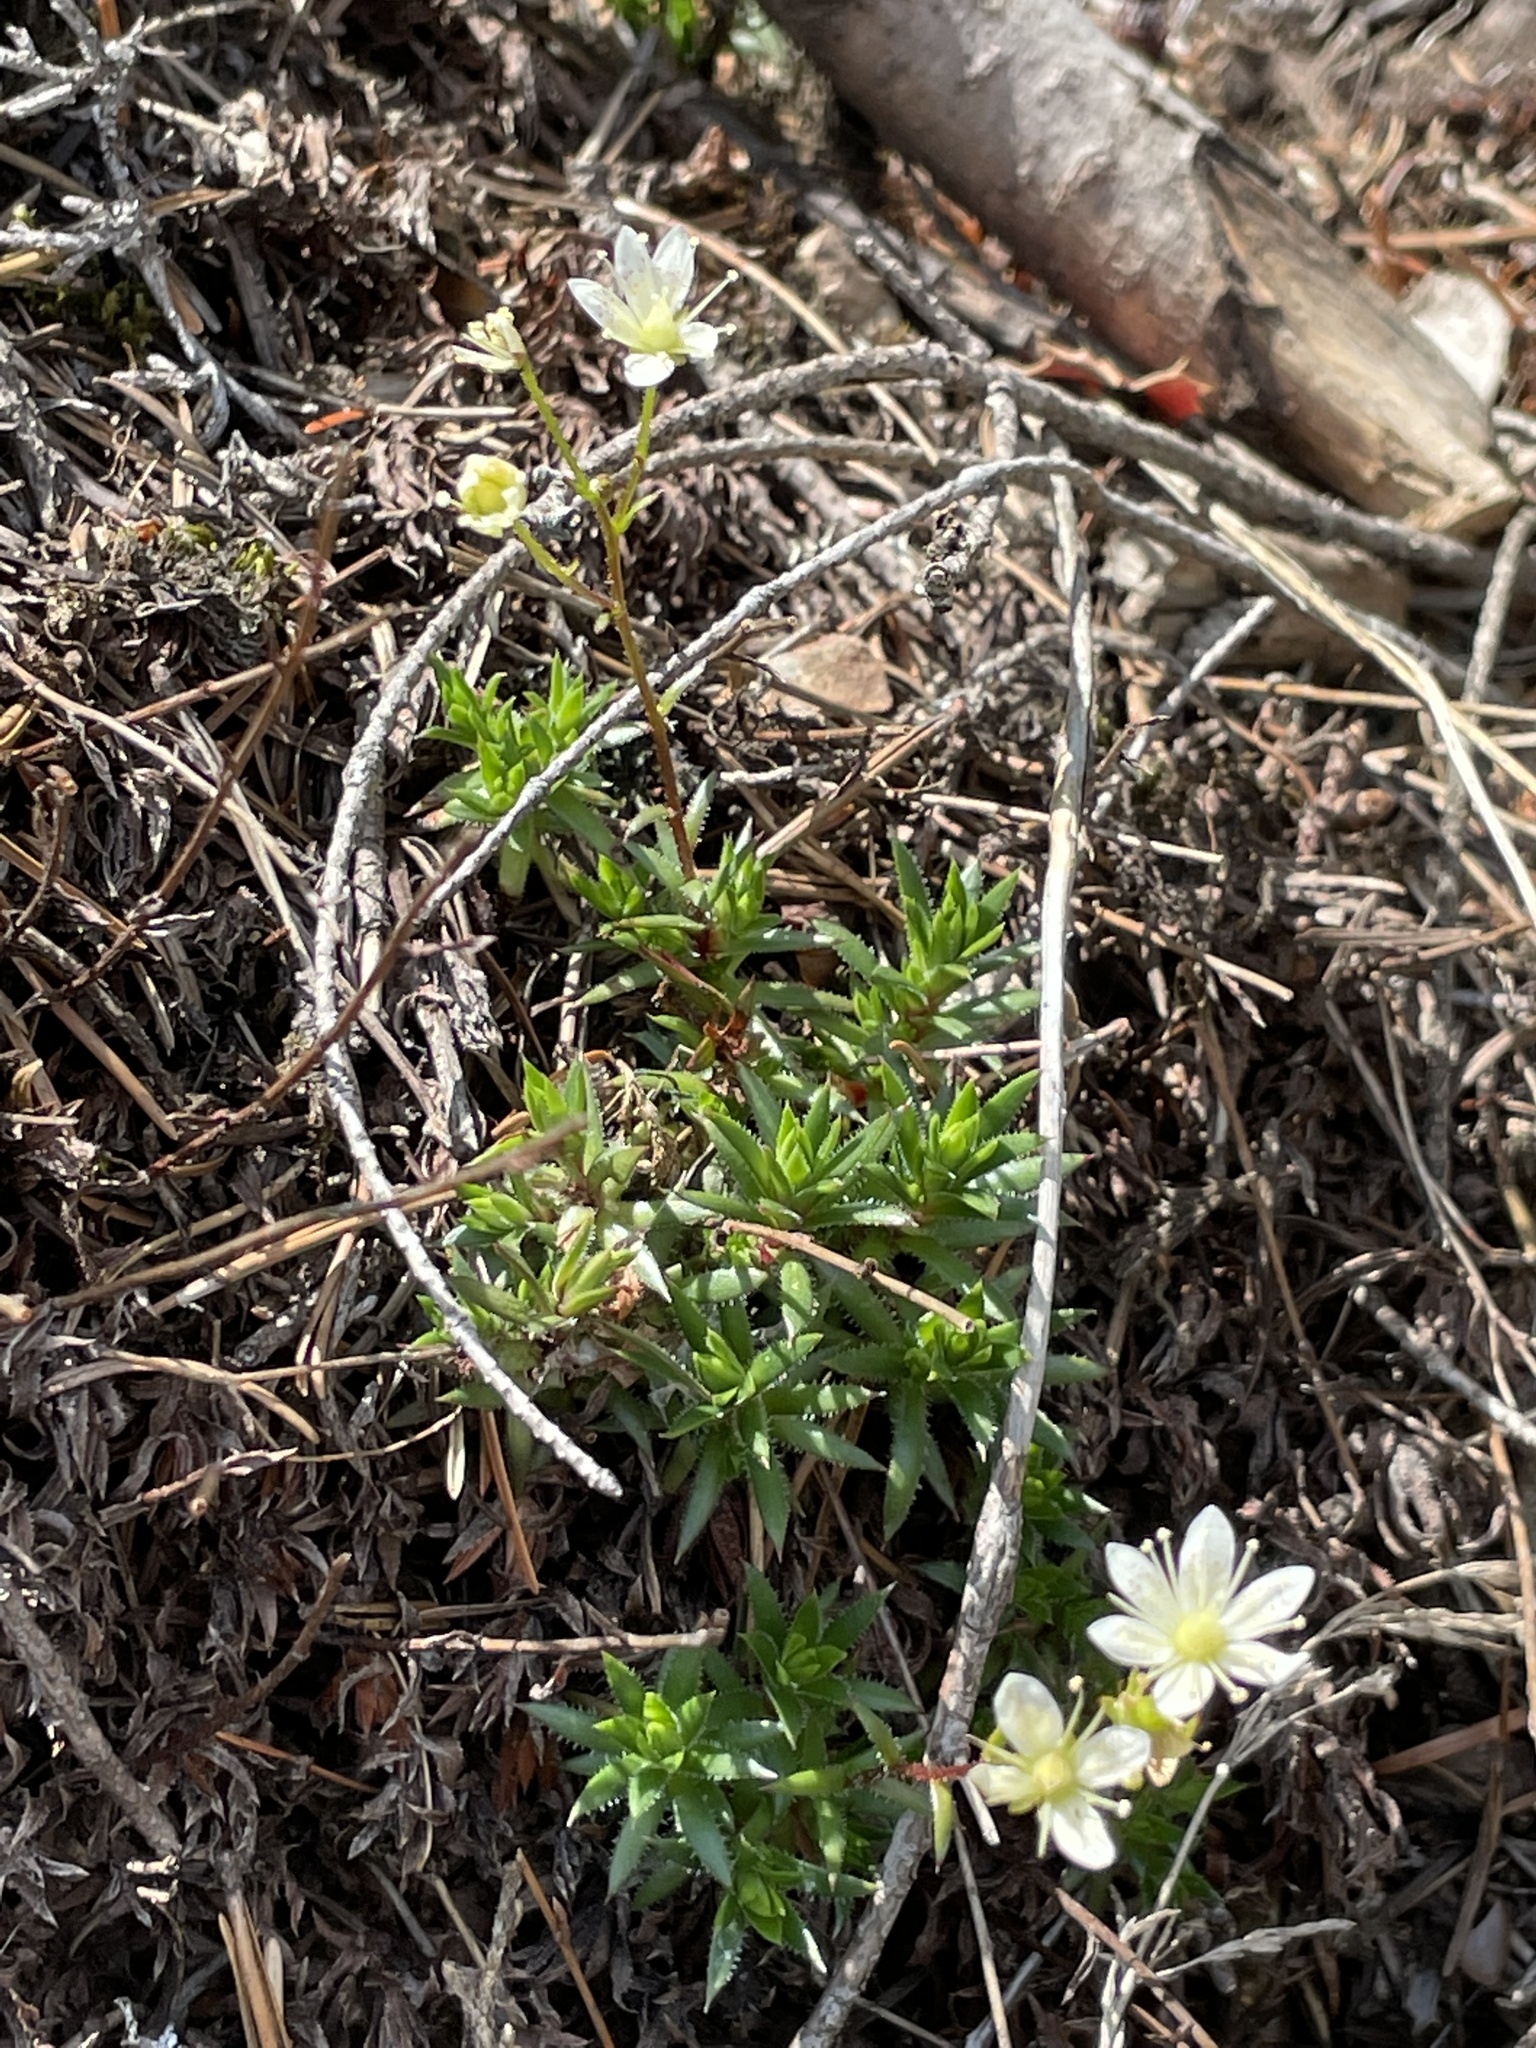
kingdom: Plantae
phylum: Tracheophyta
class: Magnoliopsida
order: Saxifragales
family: Saxifragaceae
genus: Saxifraga
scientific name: Saxifraga bronchialis
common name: Matted saxifrage
